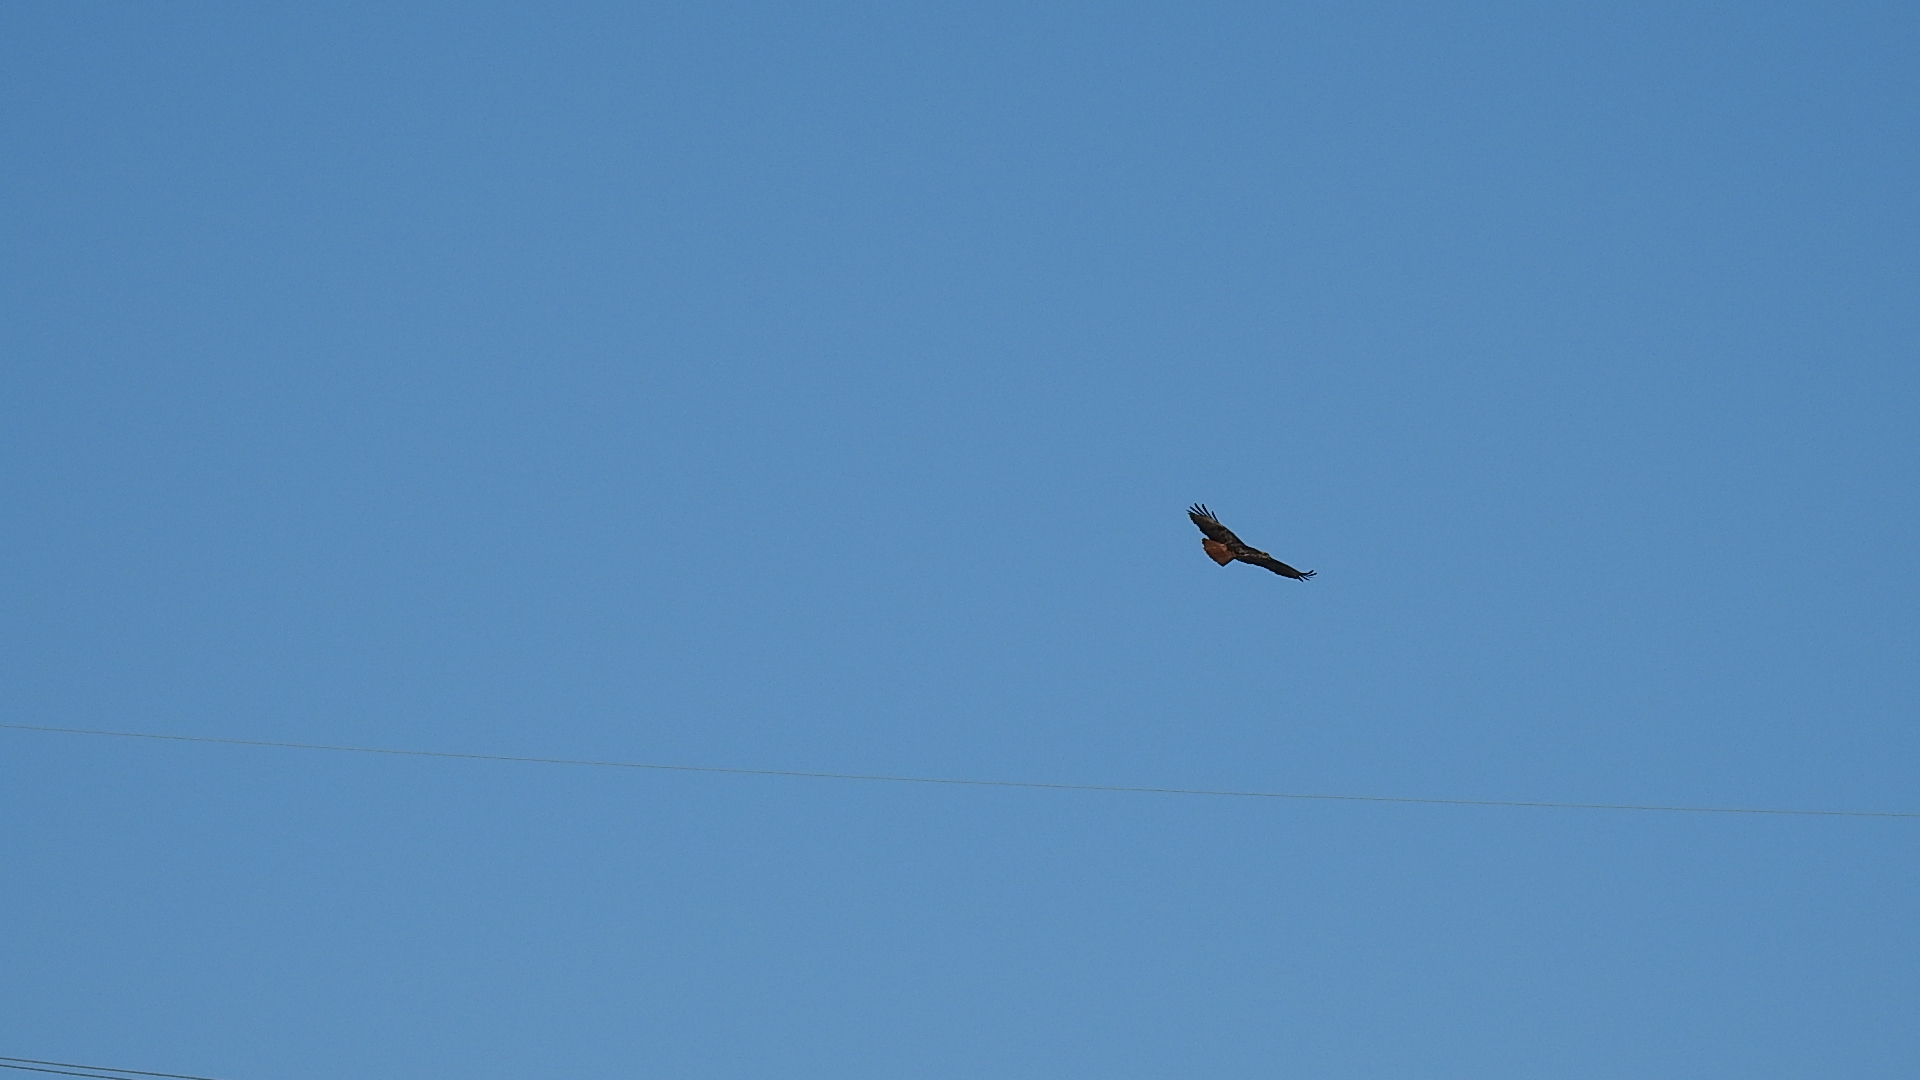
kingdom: Animalia
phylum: Chordata
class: Aves
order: Accipitriformes
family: Accipitridae
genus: Buteo
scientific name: Buteo jamaicensis
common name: Red-tailed hawk
